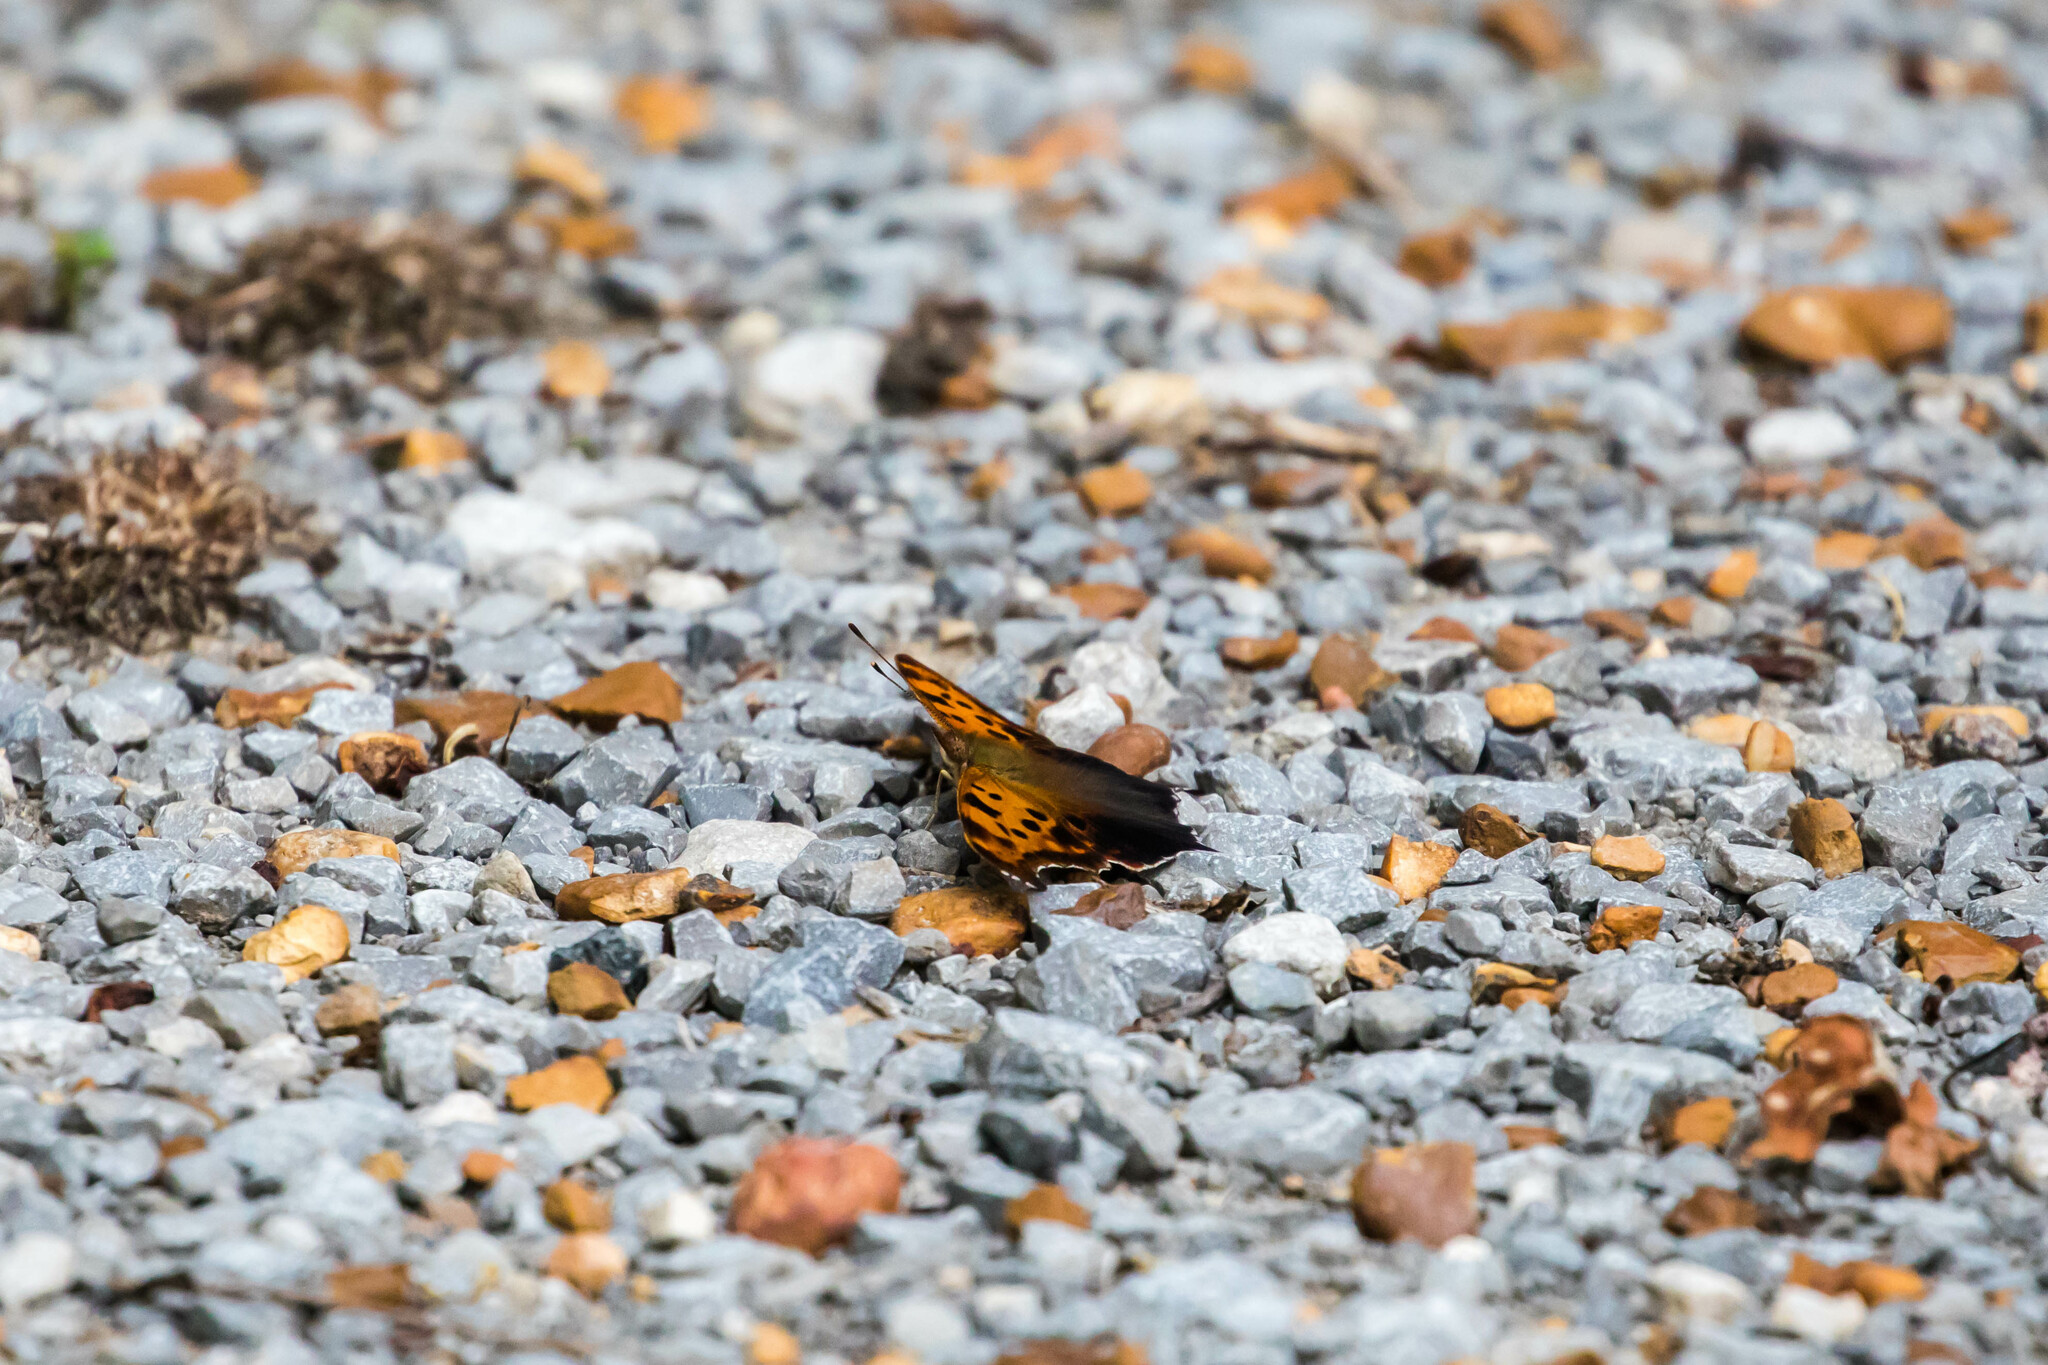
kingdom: Animalia
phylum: Arthropoda
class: Insecta
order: Lepidoptera
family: Nymphalidae
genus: Polygonia
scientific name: Polygonia interrogationis
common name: Question mark
